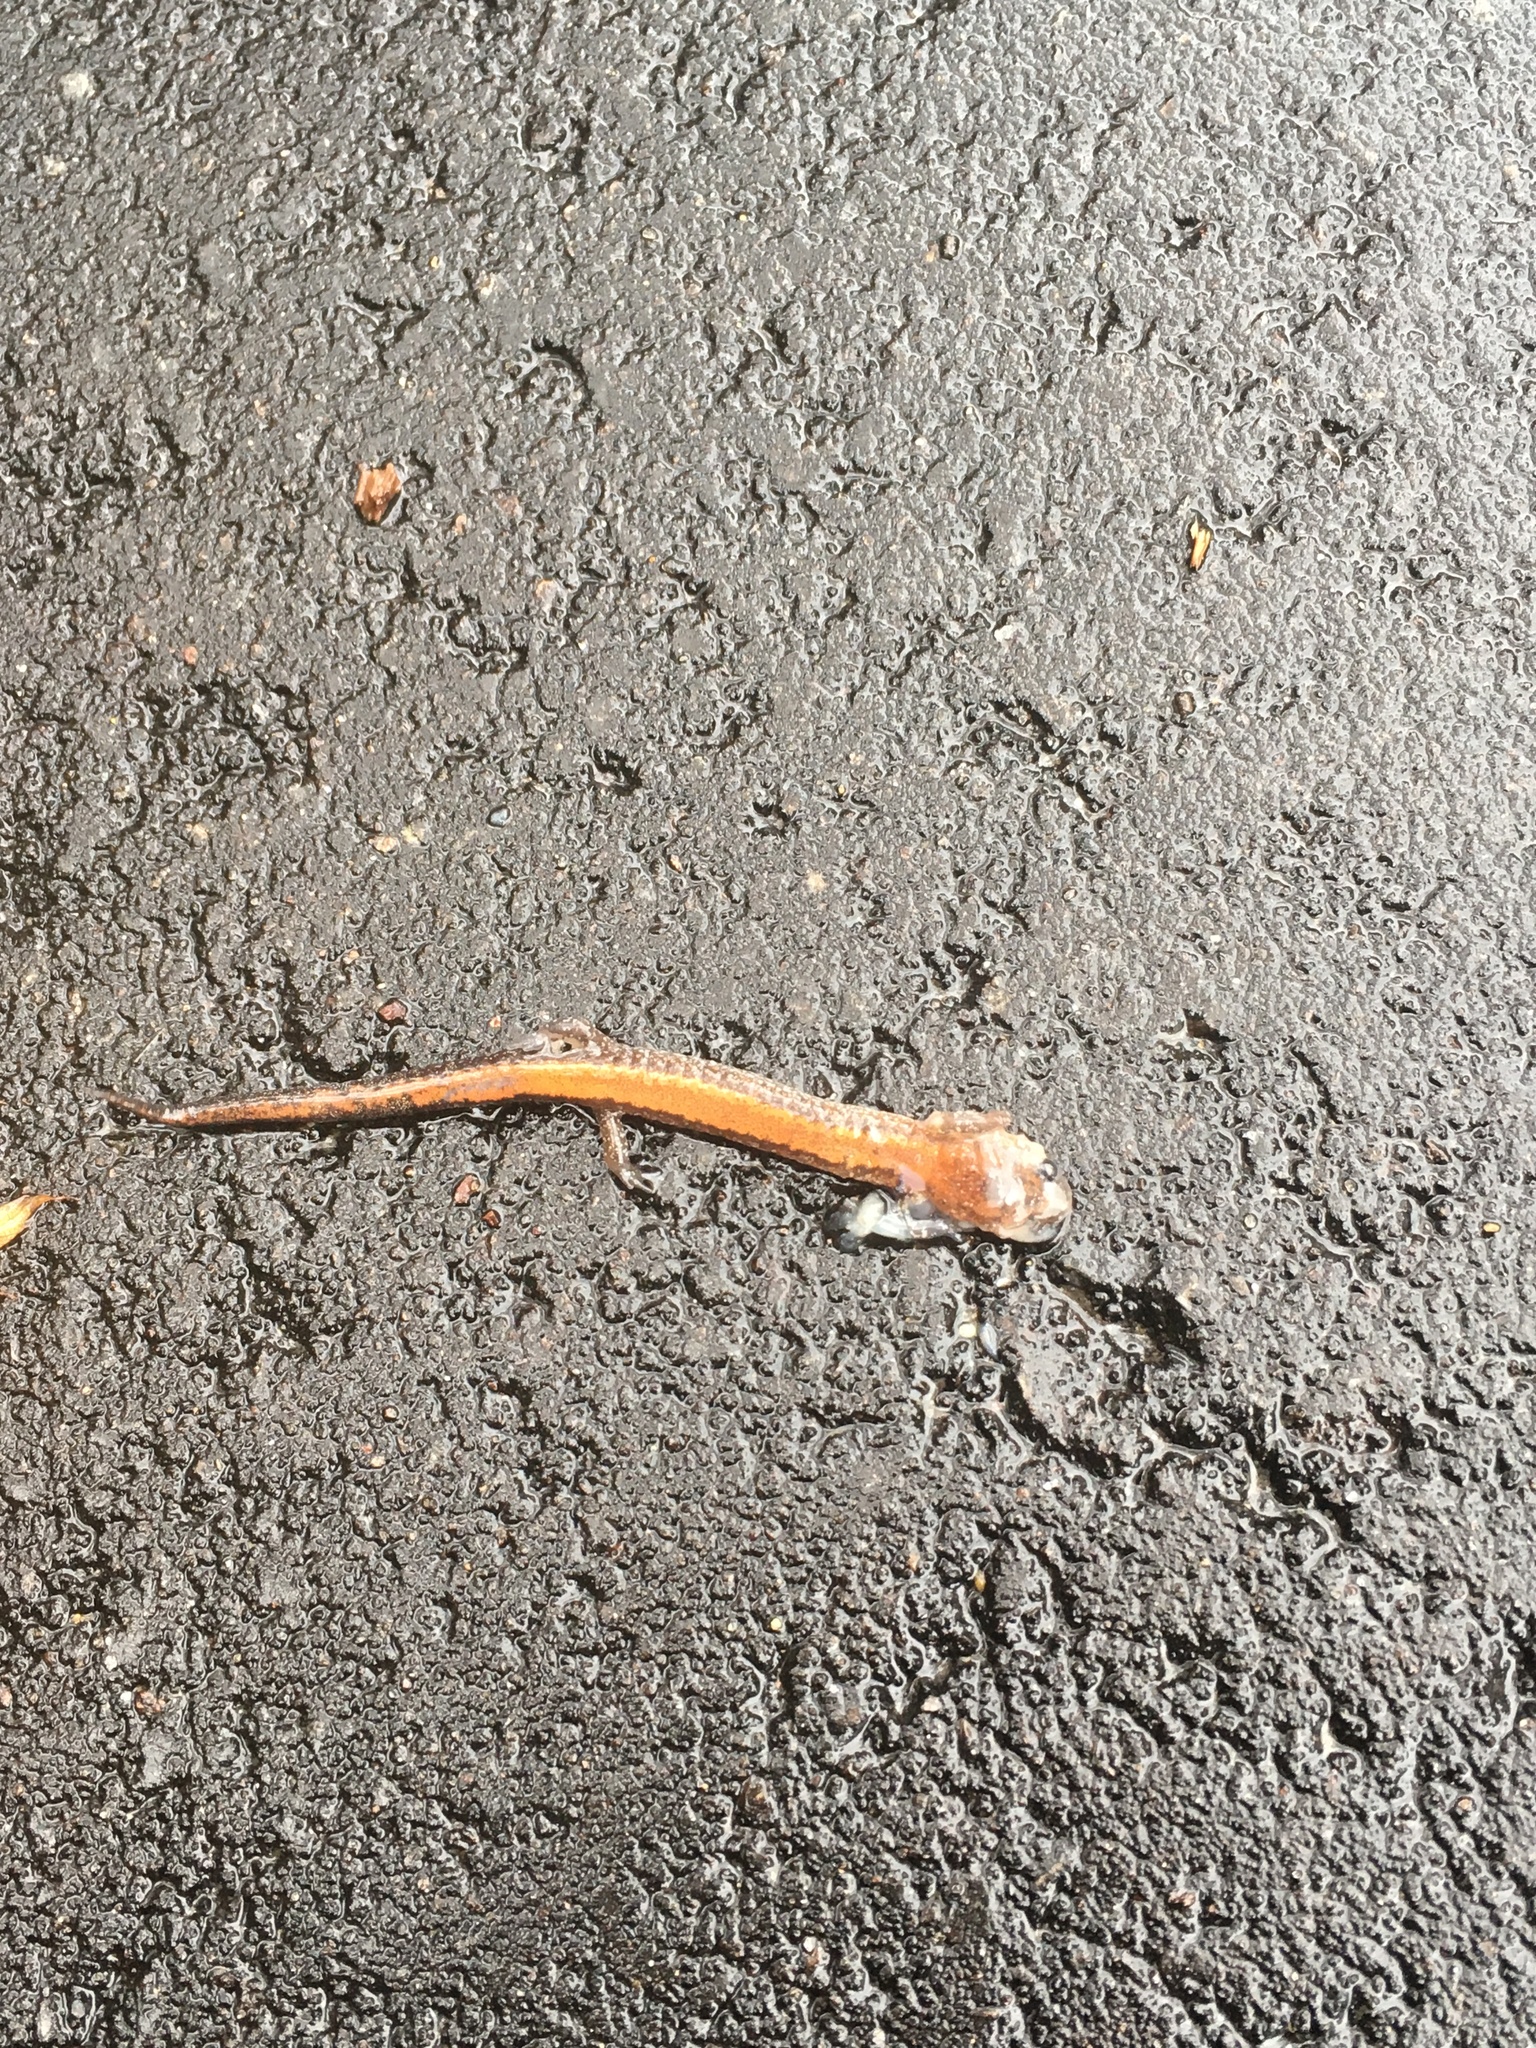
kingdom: Animalia
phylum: Chordata
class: Amphibia
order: Caudata
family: Plethodontidae
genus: Plethodon
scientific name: Plethodon cinereus
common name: Redback salamander
